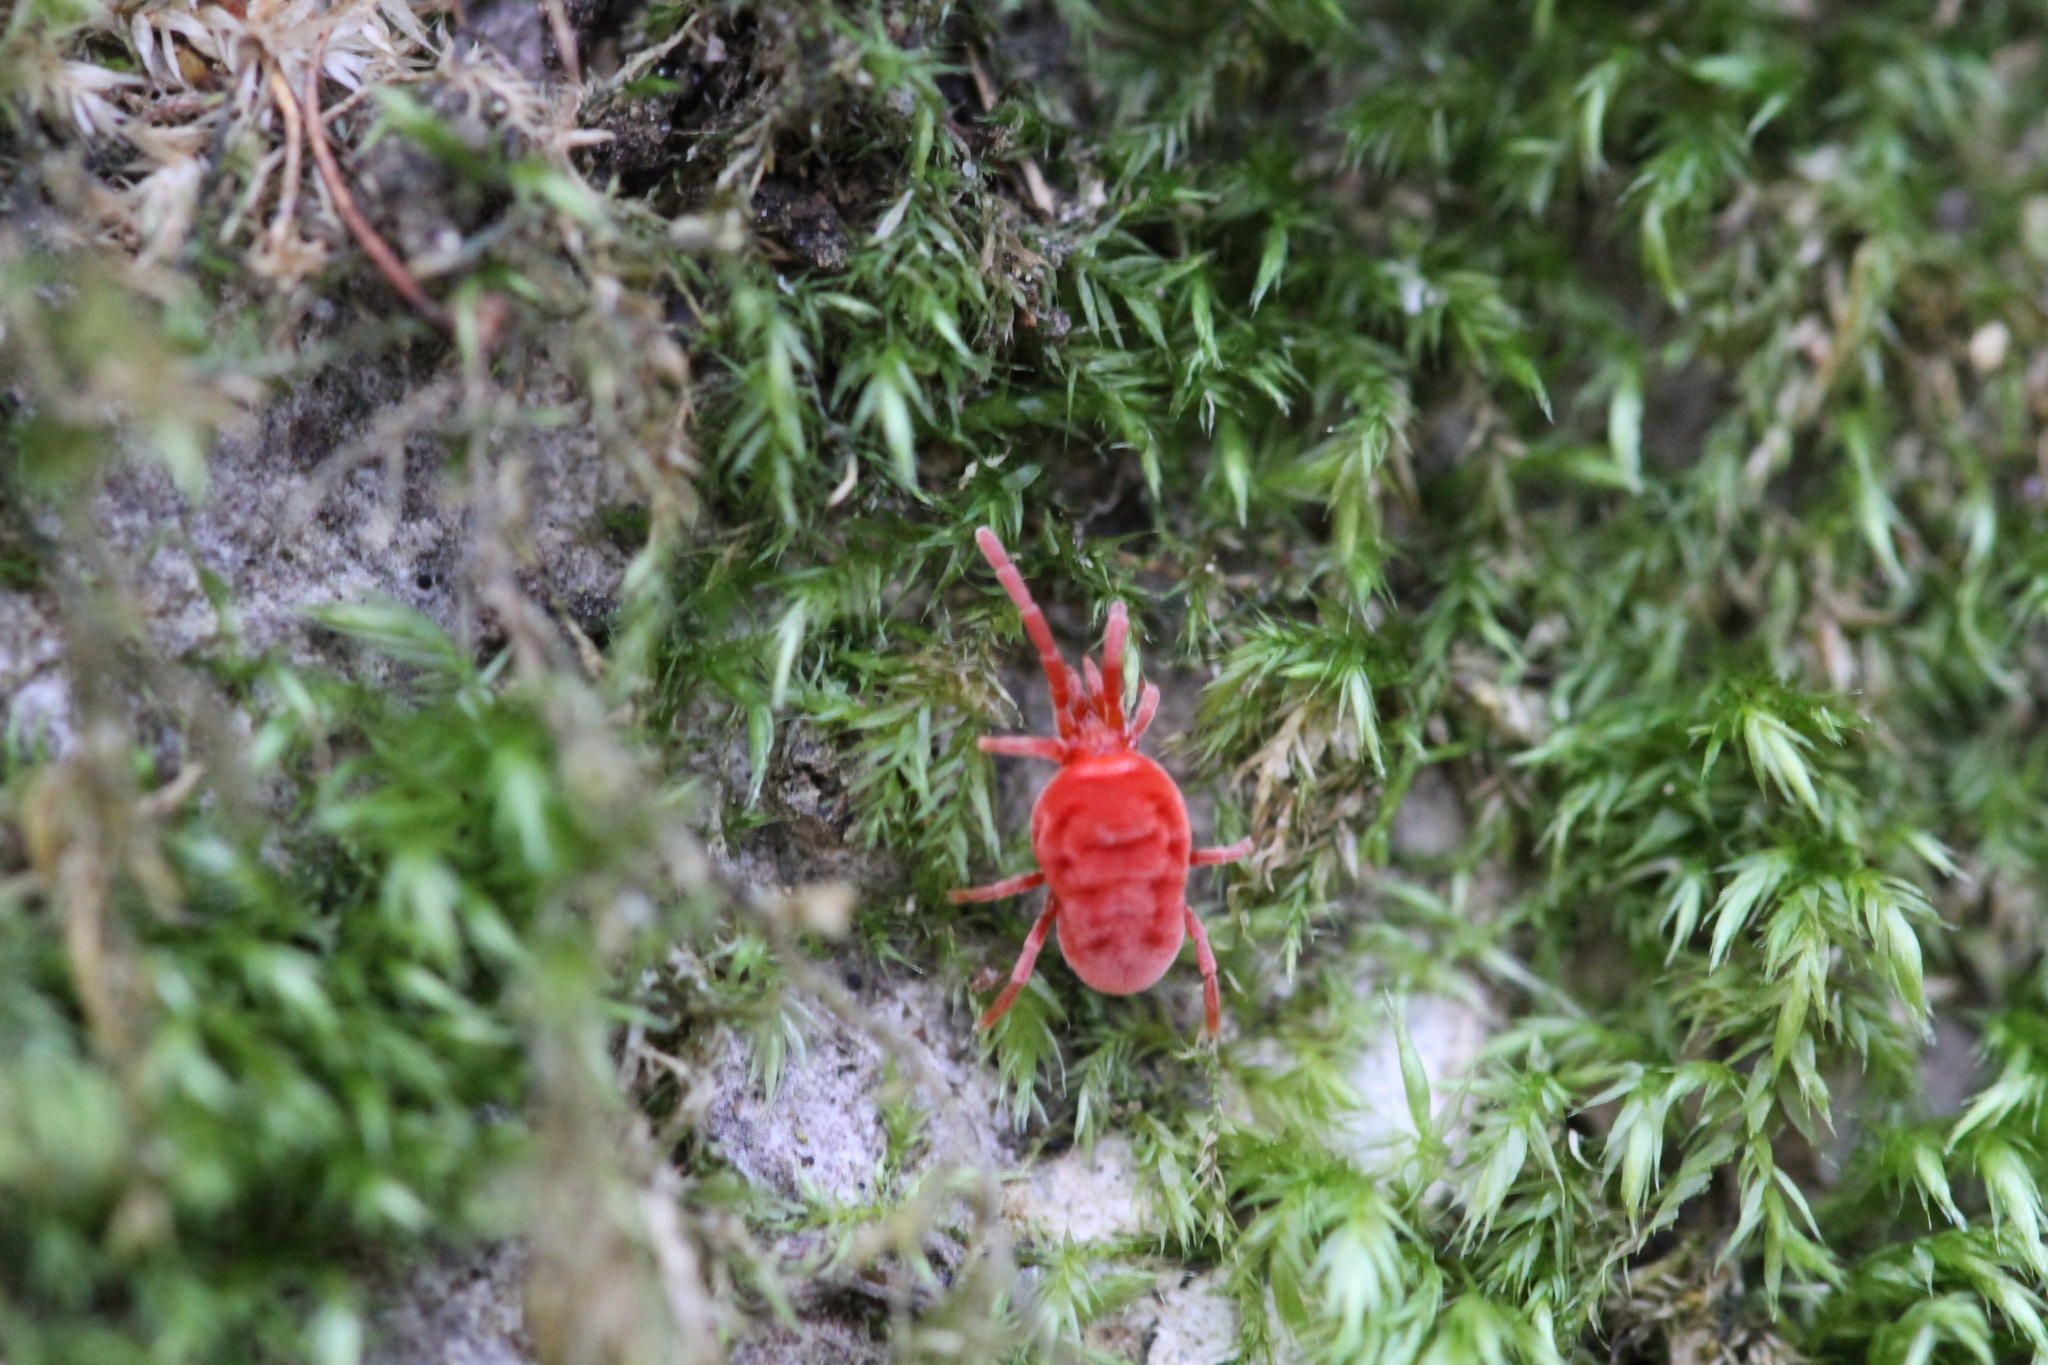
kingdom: Animalia
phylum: Arthropoda
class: Arachnida
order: Trombidiformes
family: Trombidiidae
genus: Allothrombium
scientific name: Allothrombium
